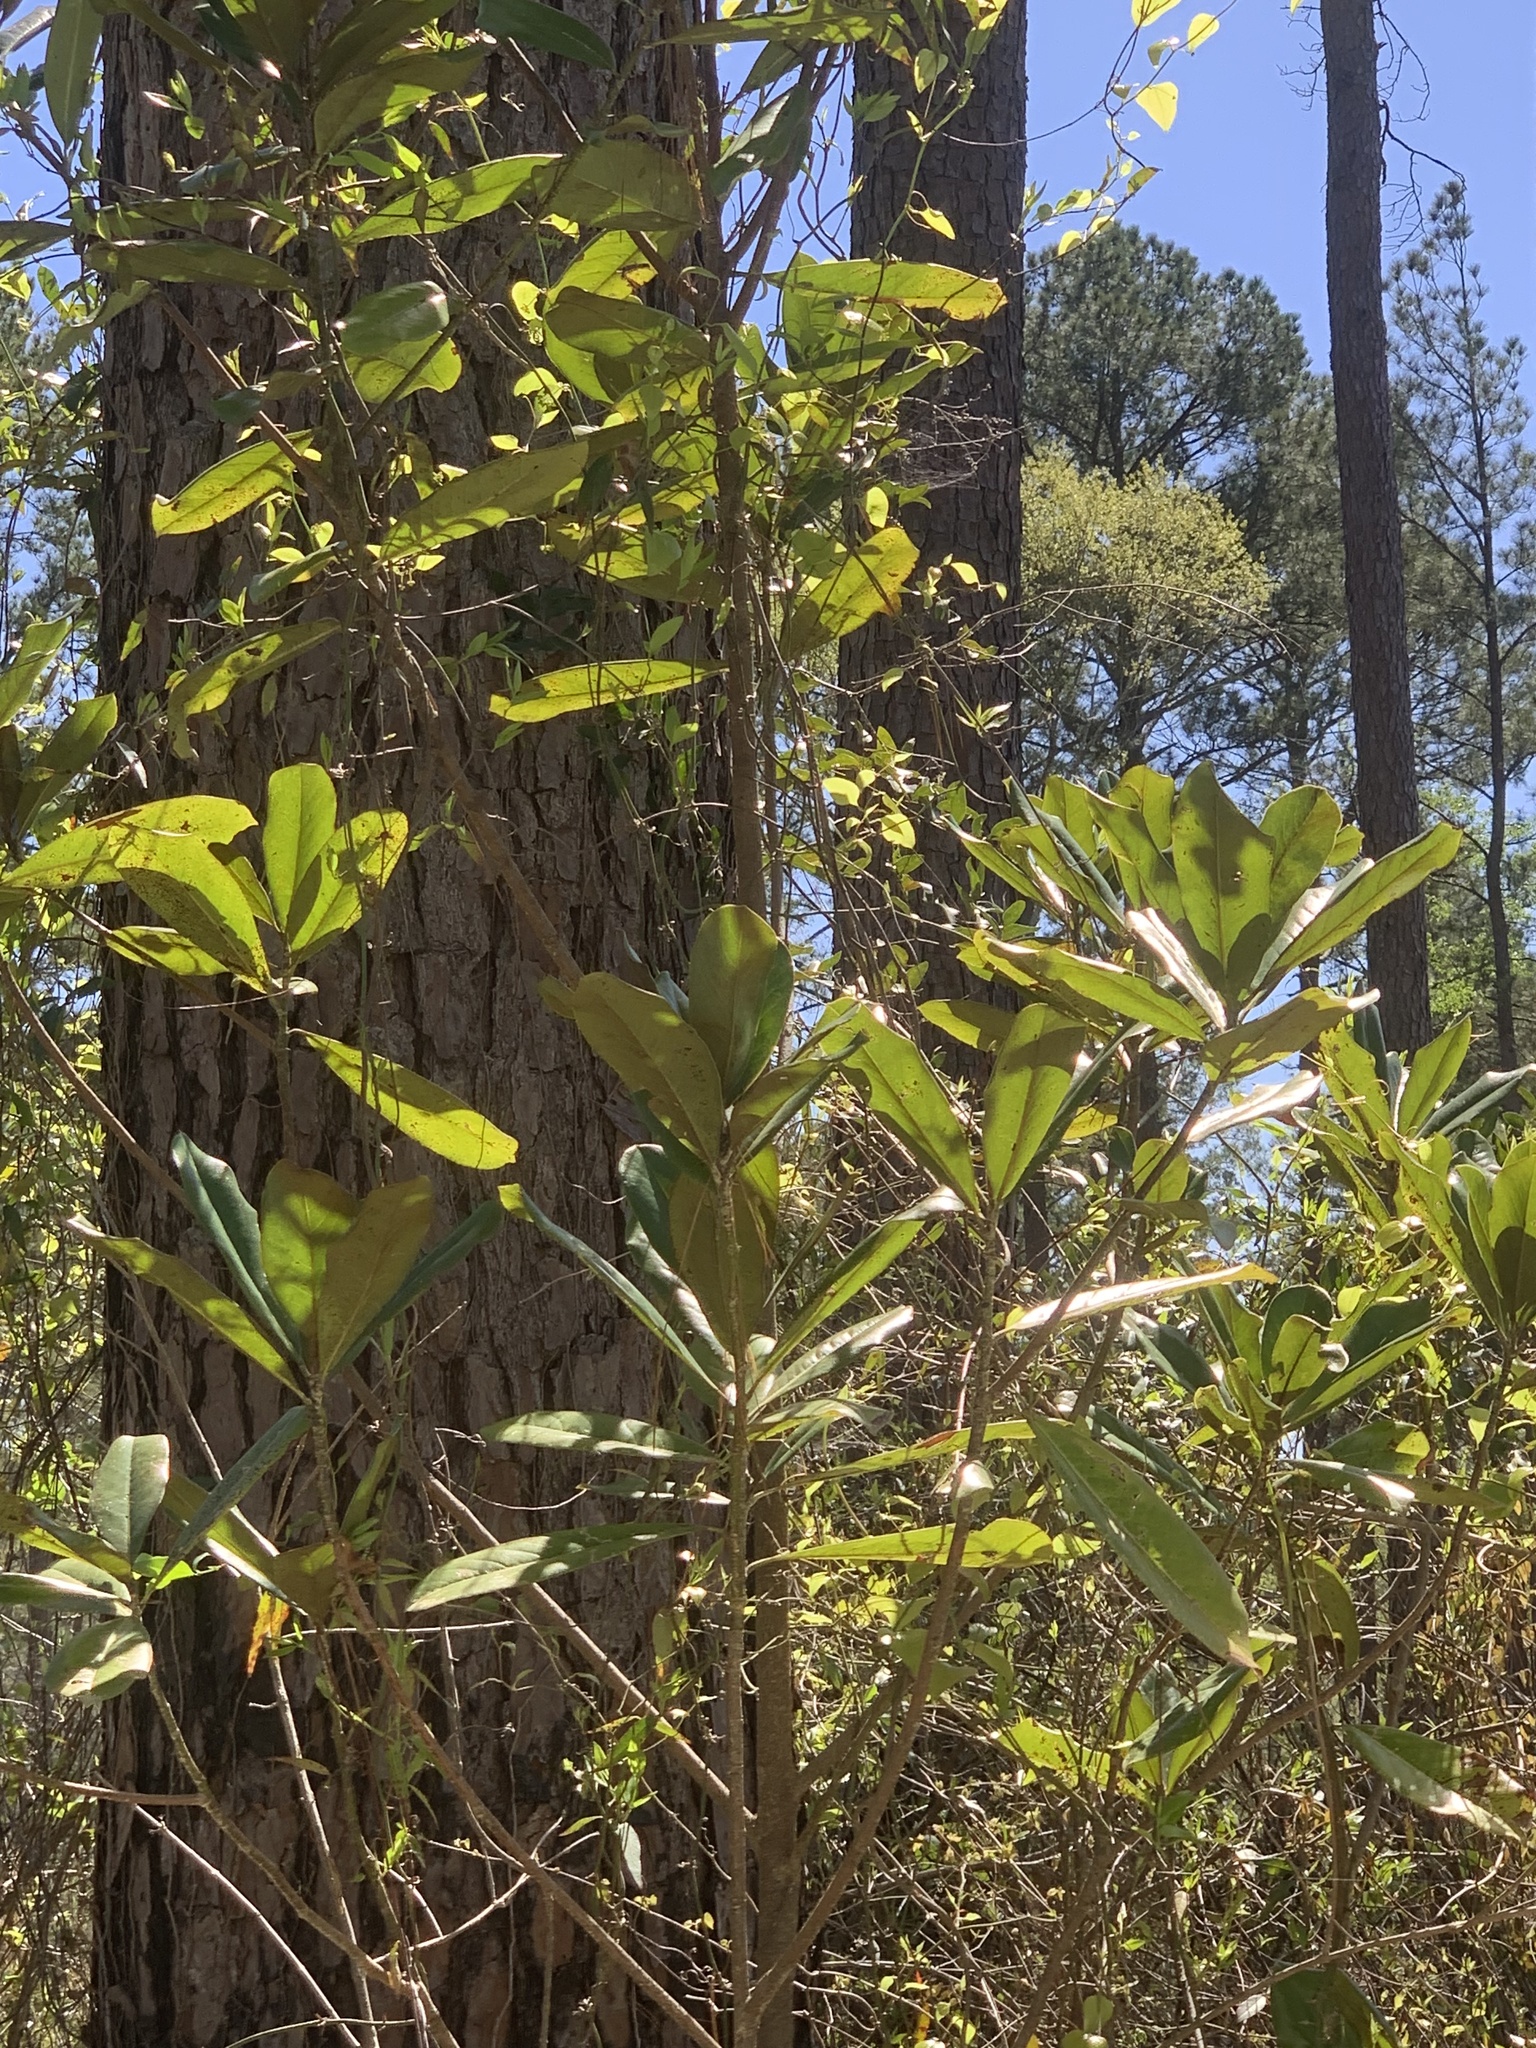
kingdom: Plantae
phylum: Tracheophyta
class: Magnoliopsida
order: Magnoliales
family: Magnoliaceae
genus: Magnolia
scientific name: Magnolia grandiflora
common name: Southern magnolia
